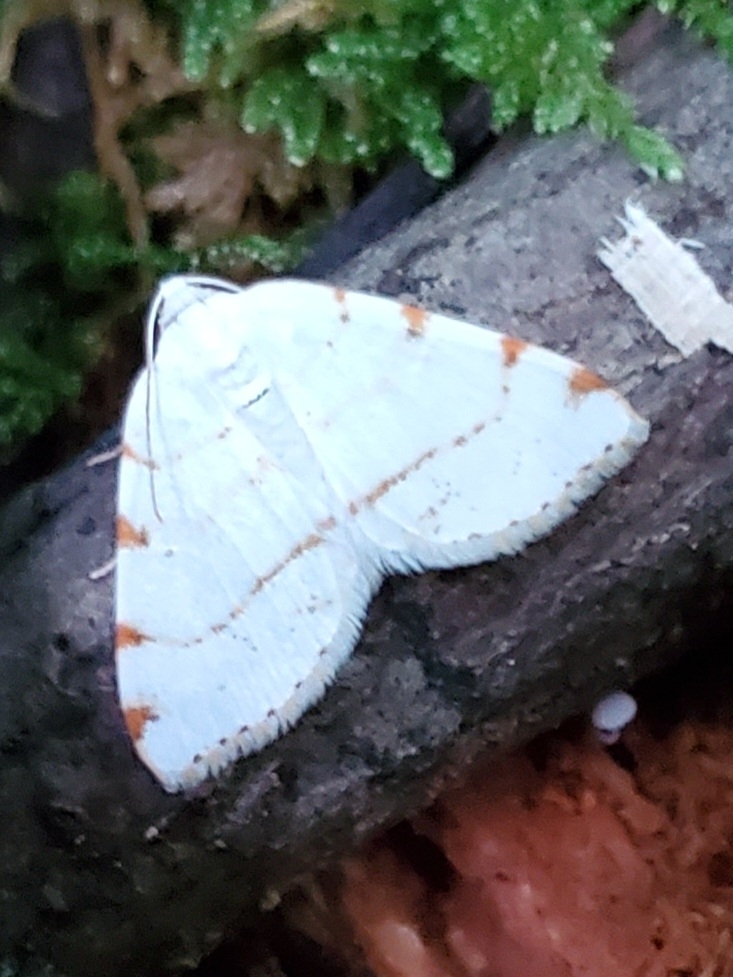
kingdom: Animalia
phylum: Arthropoda
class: Insecta
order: Lepidoptera
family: Geometridae
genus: Macaria
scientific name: Macaria pustularia
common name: Lesser maple spanworm moth
